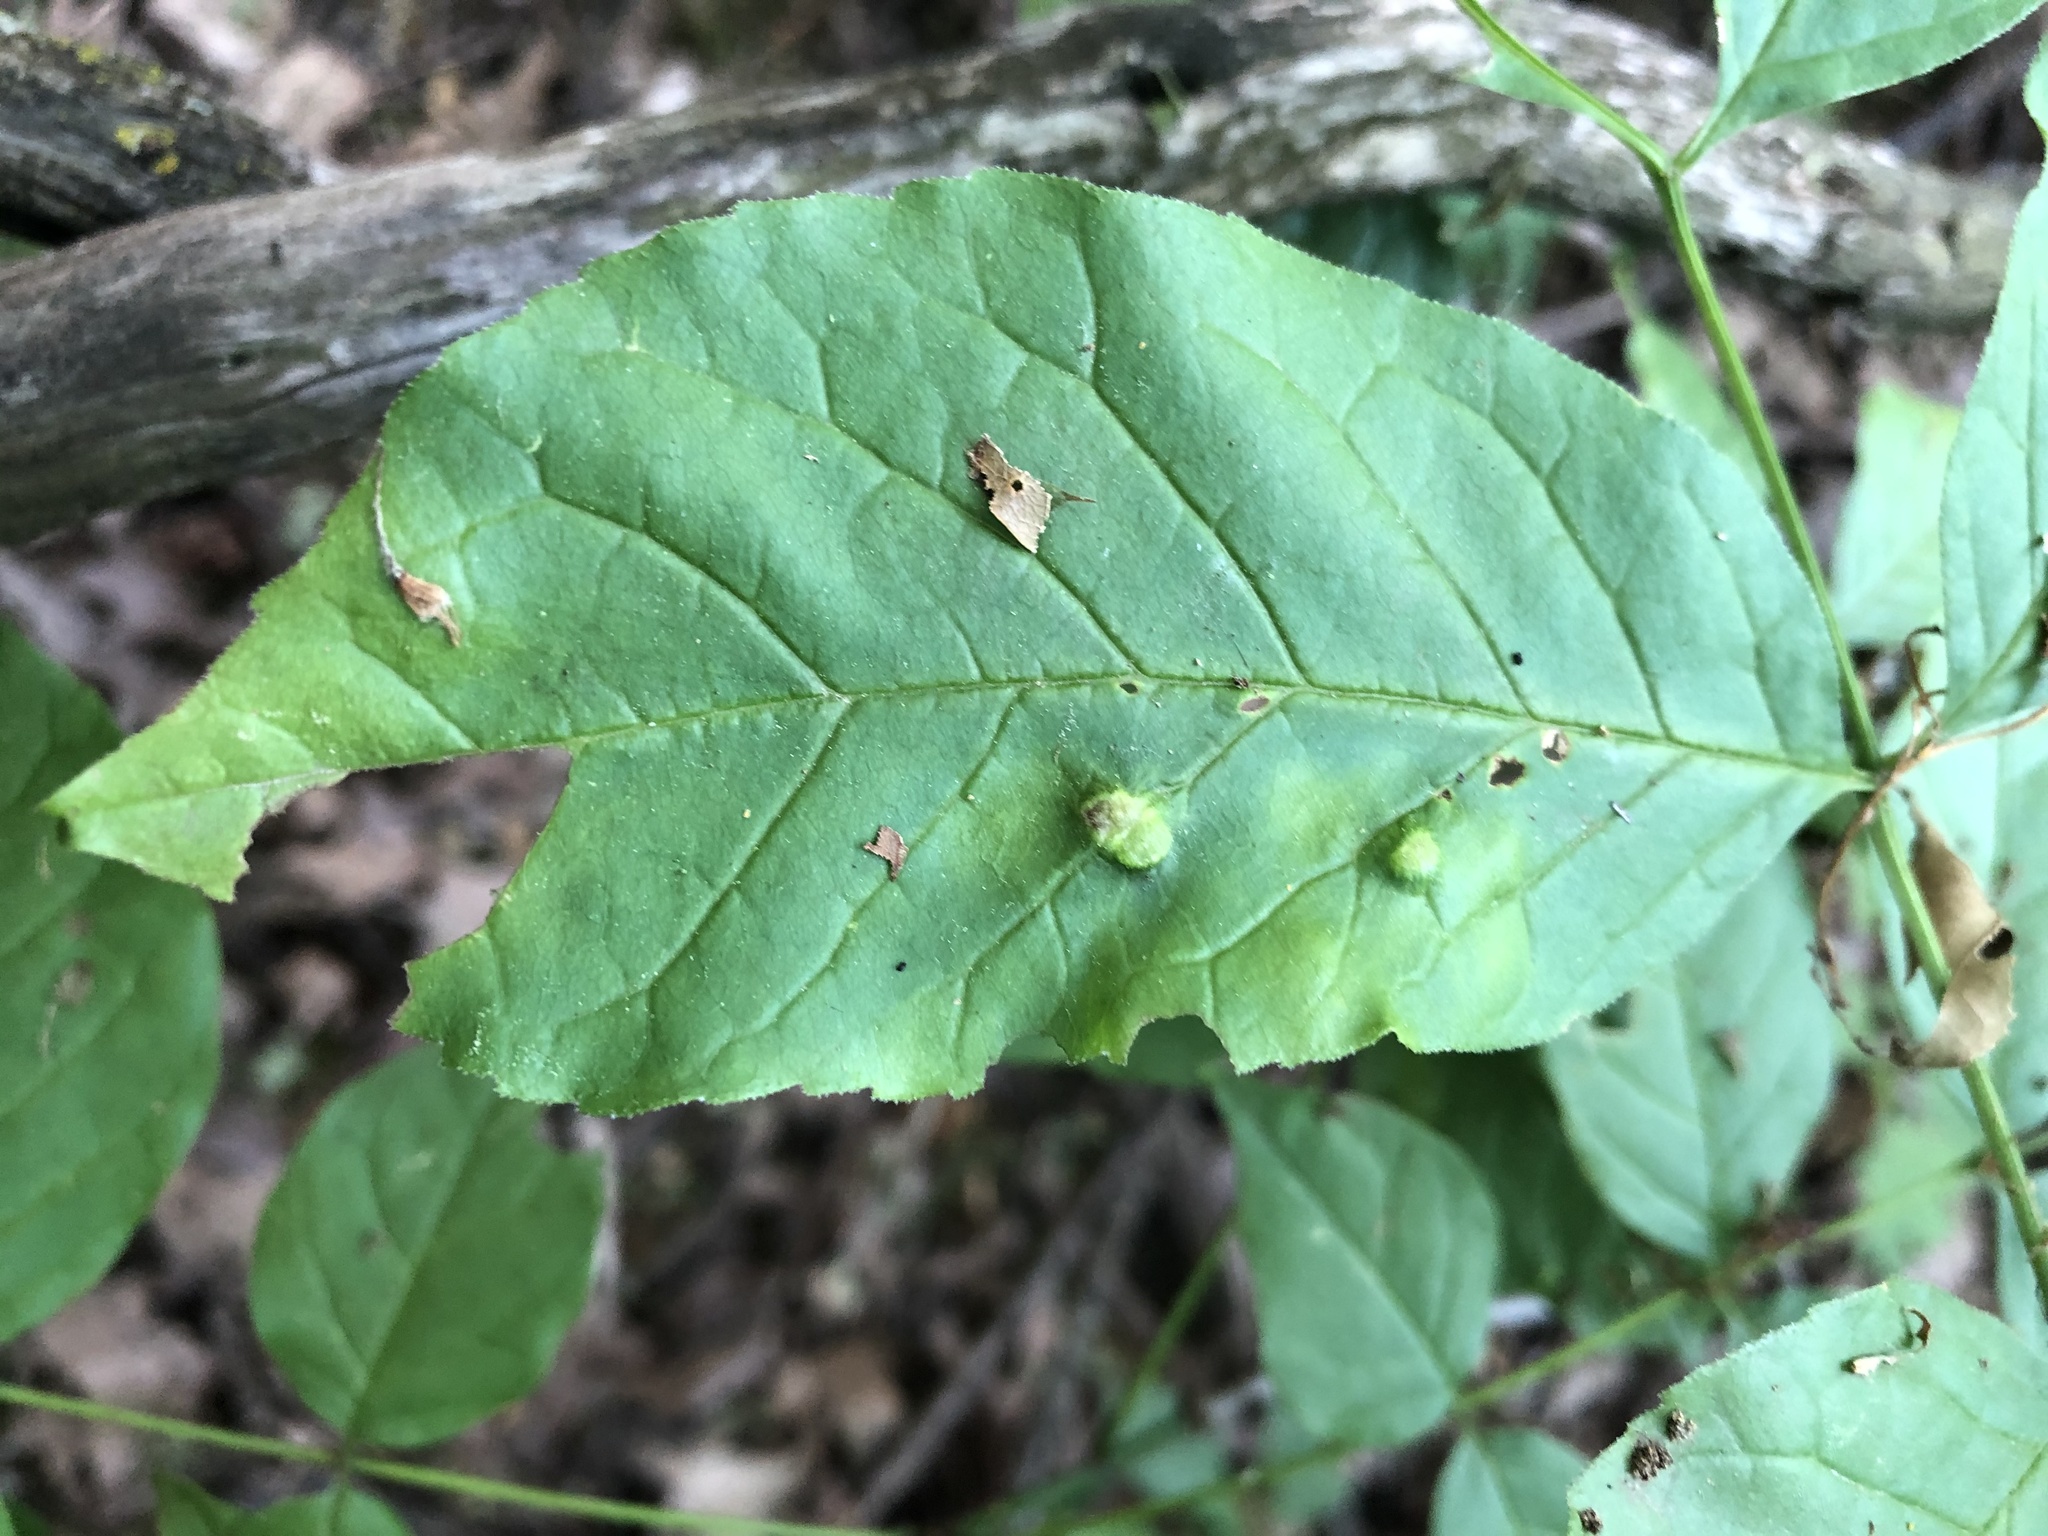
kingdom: Animalia
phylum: Arthropoda
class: Arachnida
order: Trombidiformes
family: Eriophyidae
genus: Aceria
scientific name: Aceria fraxinicola
